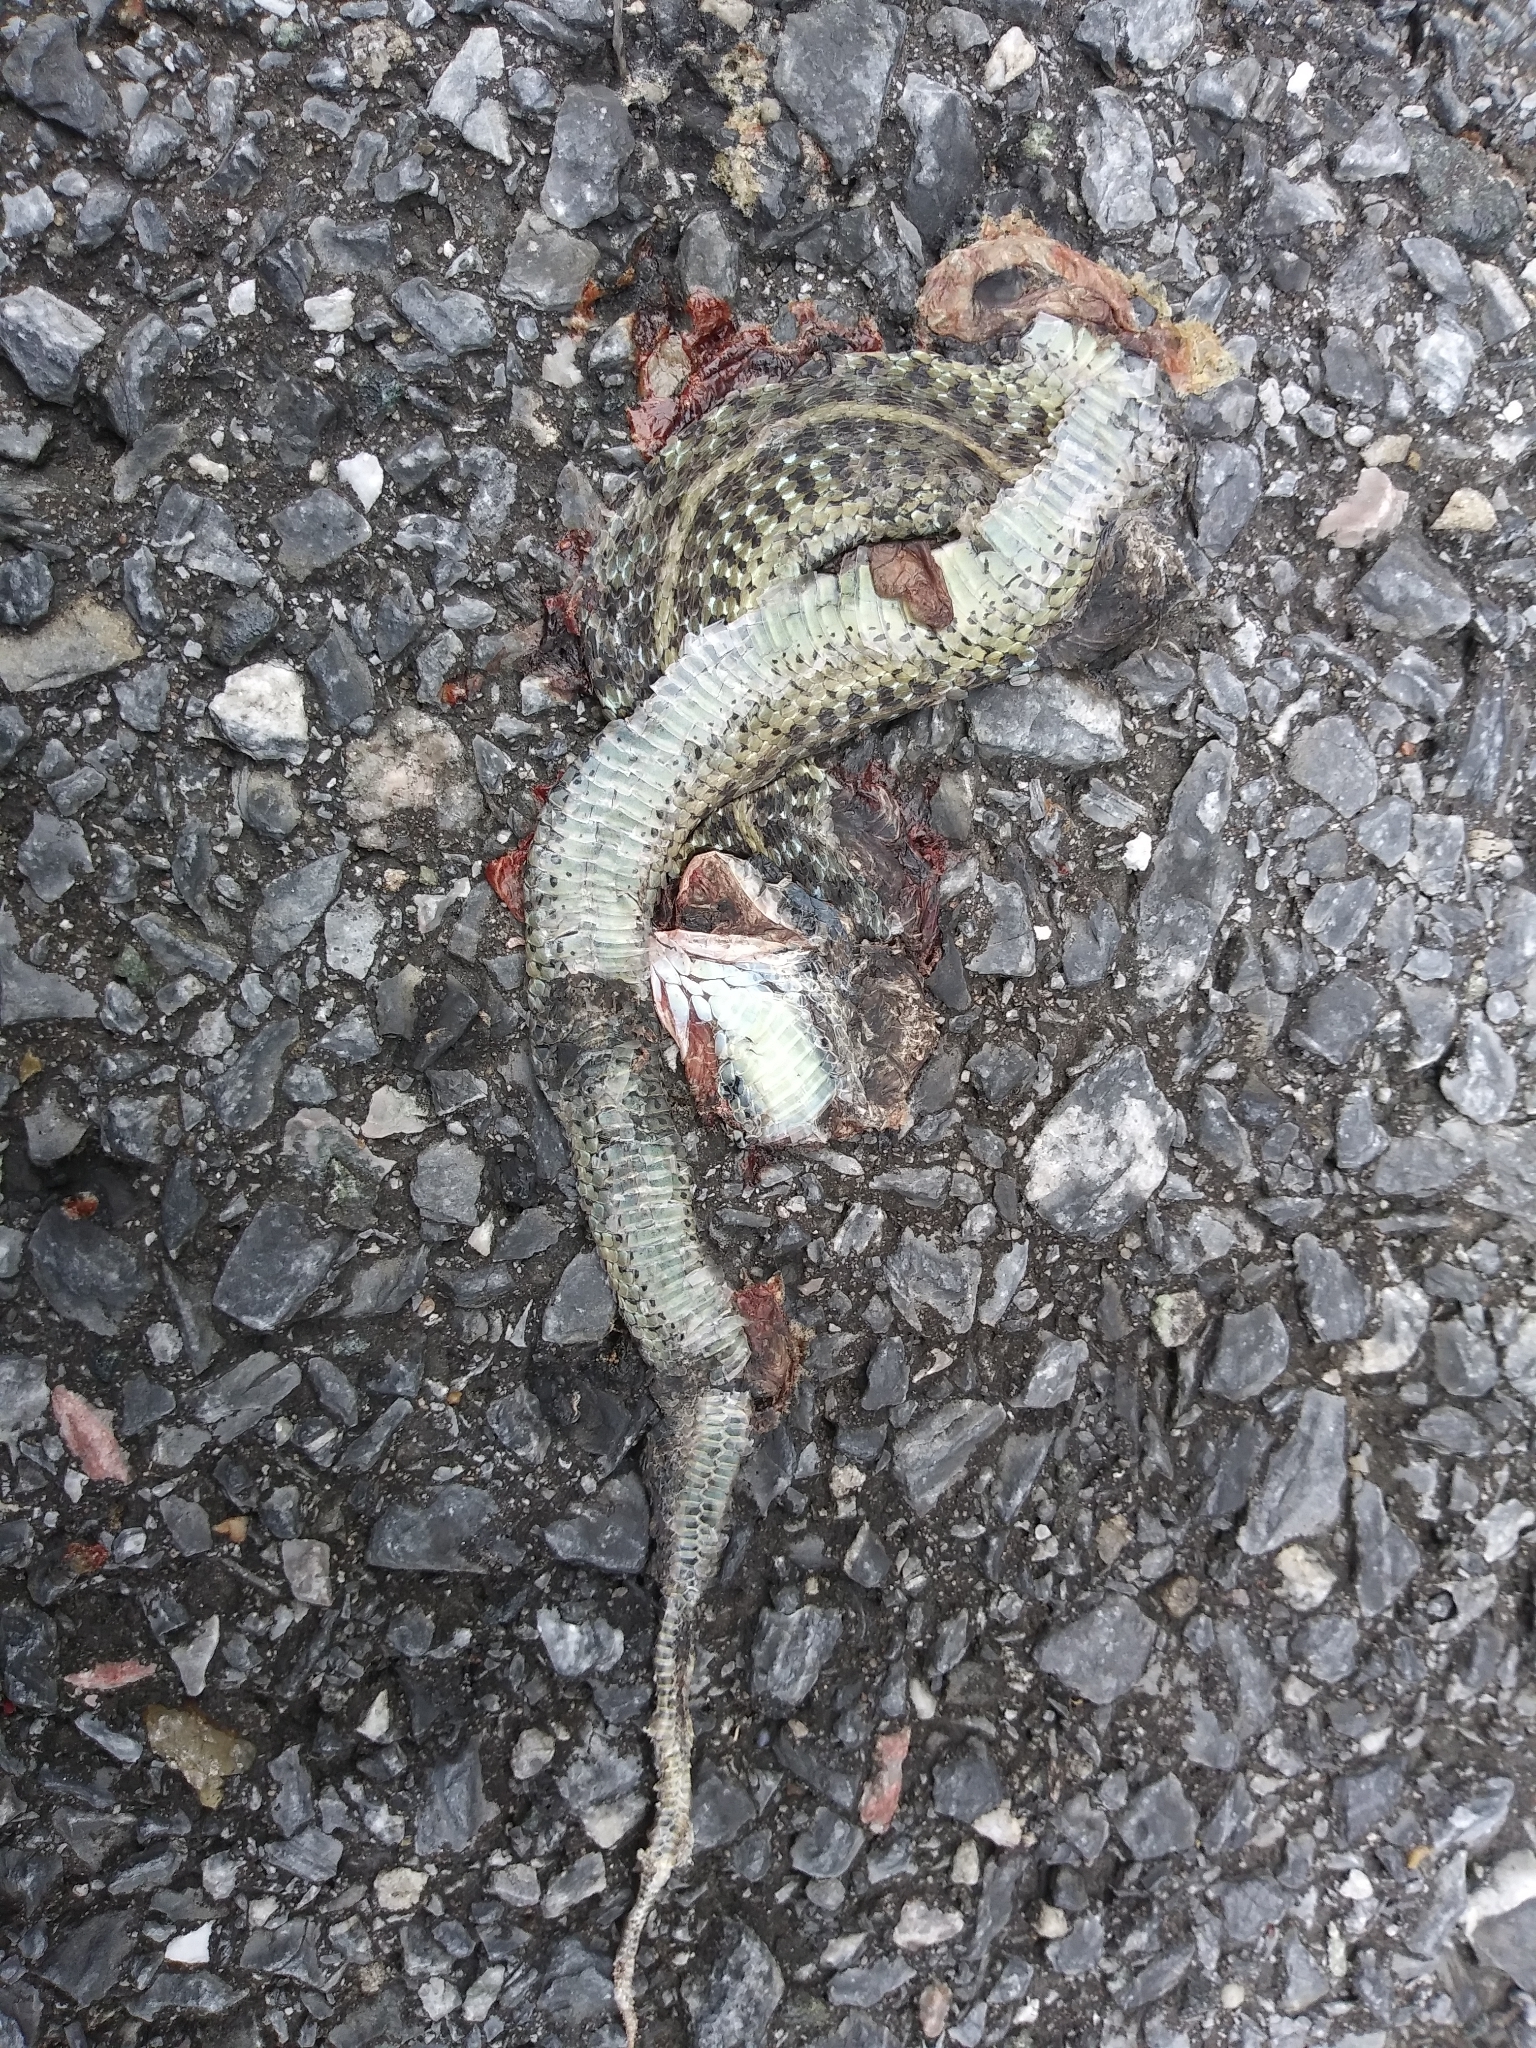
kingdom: Animalia
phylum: Chordata
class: Squamata
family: Colubridae
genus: Thamnophis
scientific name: Thamnophis sirtalis
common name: Common garter snake
